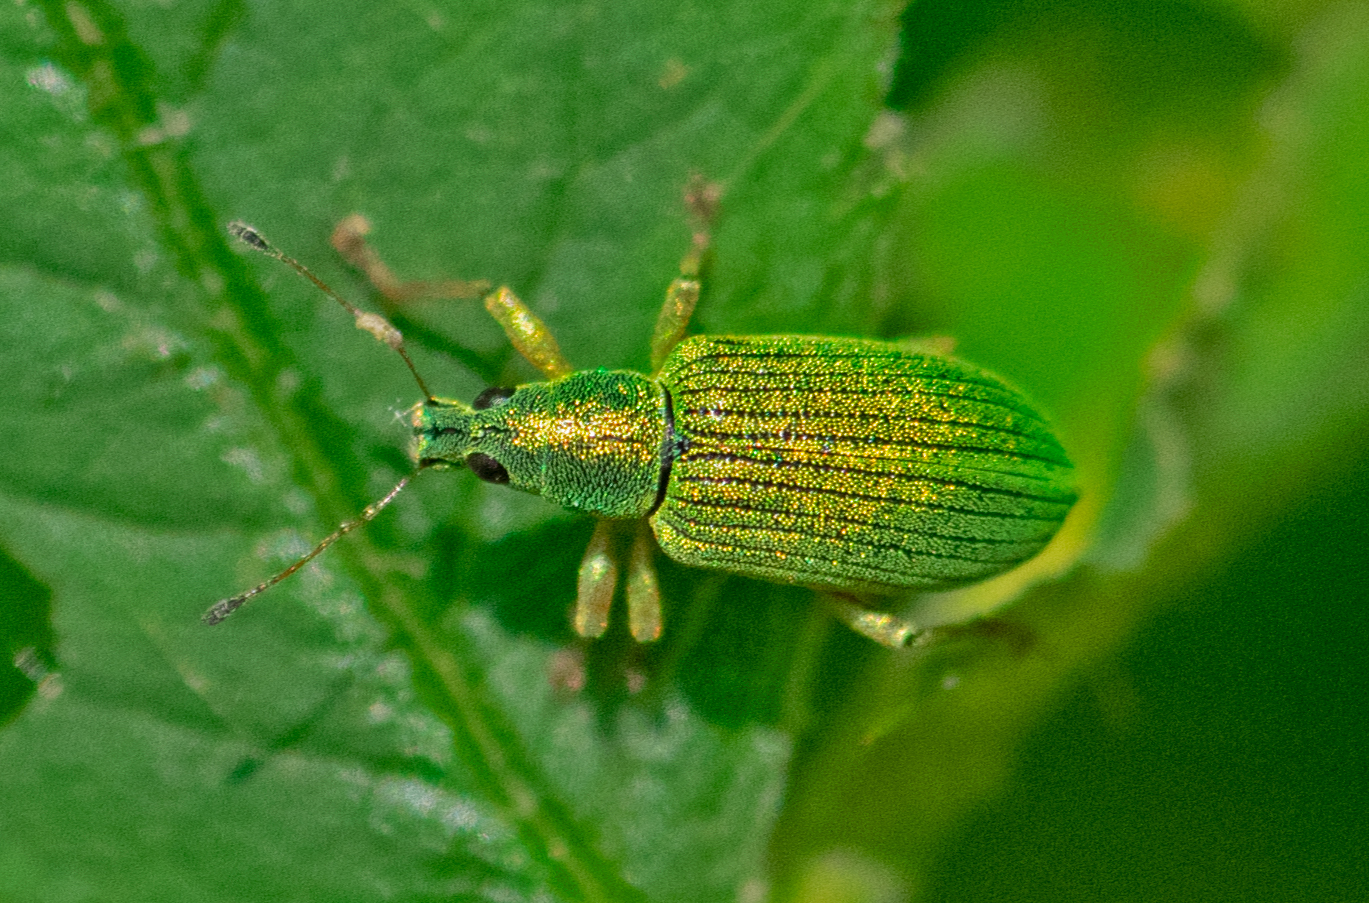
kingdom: Animalia
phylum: Arthropoda
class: Insecta
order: Coleoptera
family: Curculionidae
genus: Polydrusus
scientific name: Polydrusus formosus
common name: Weevil
